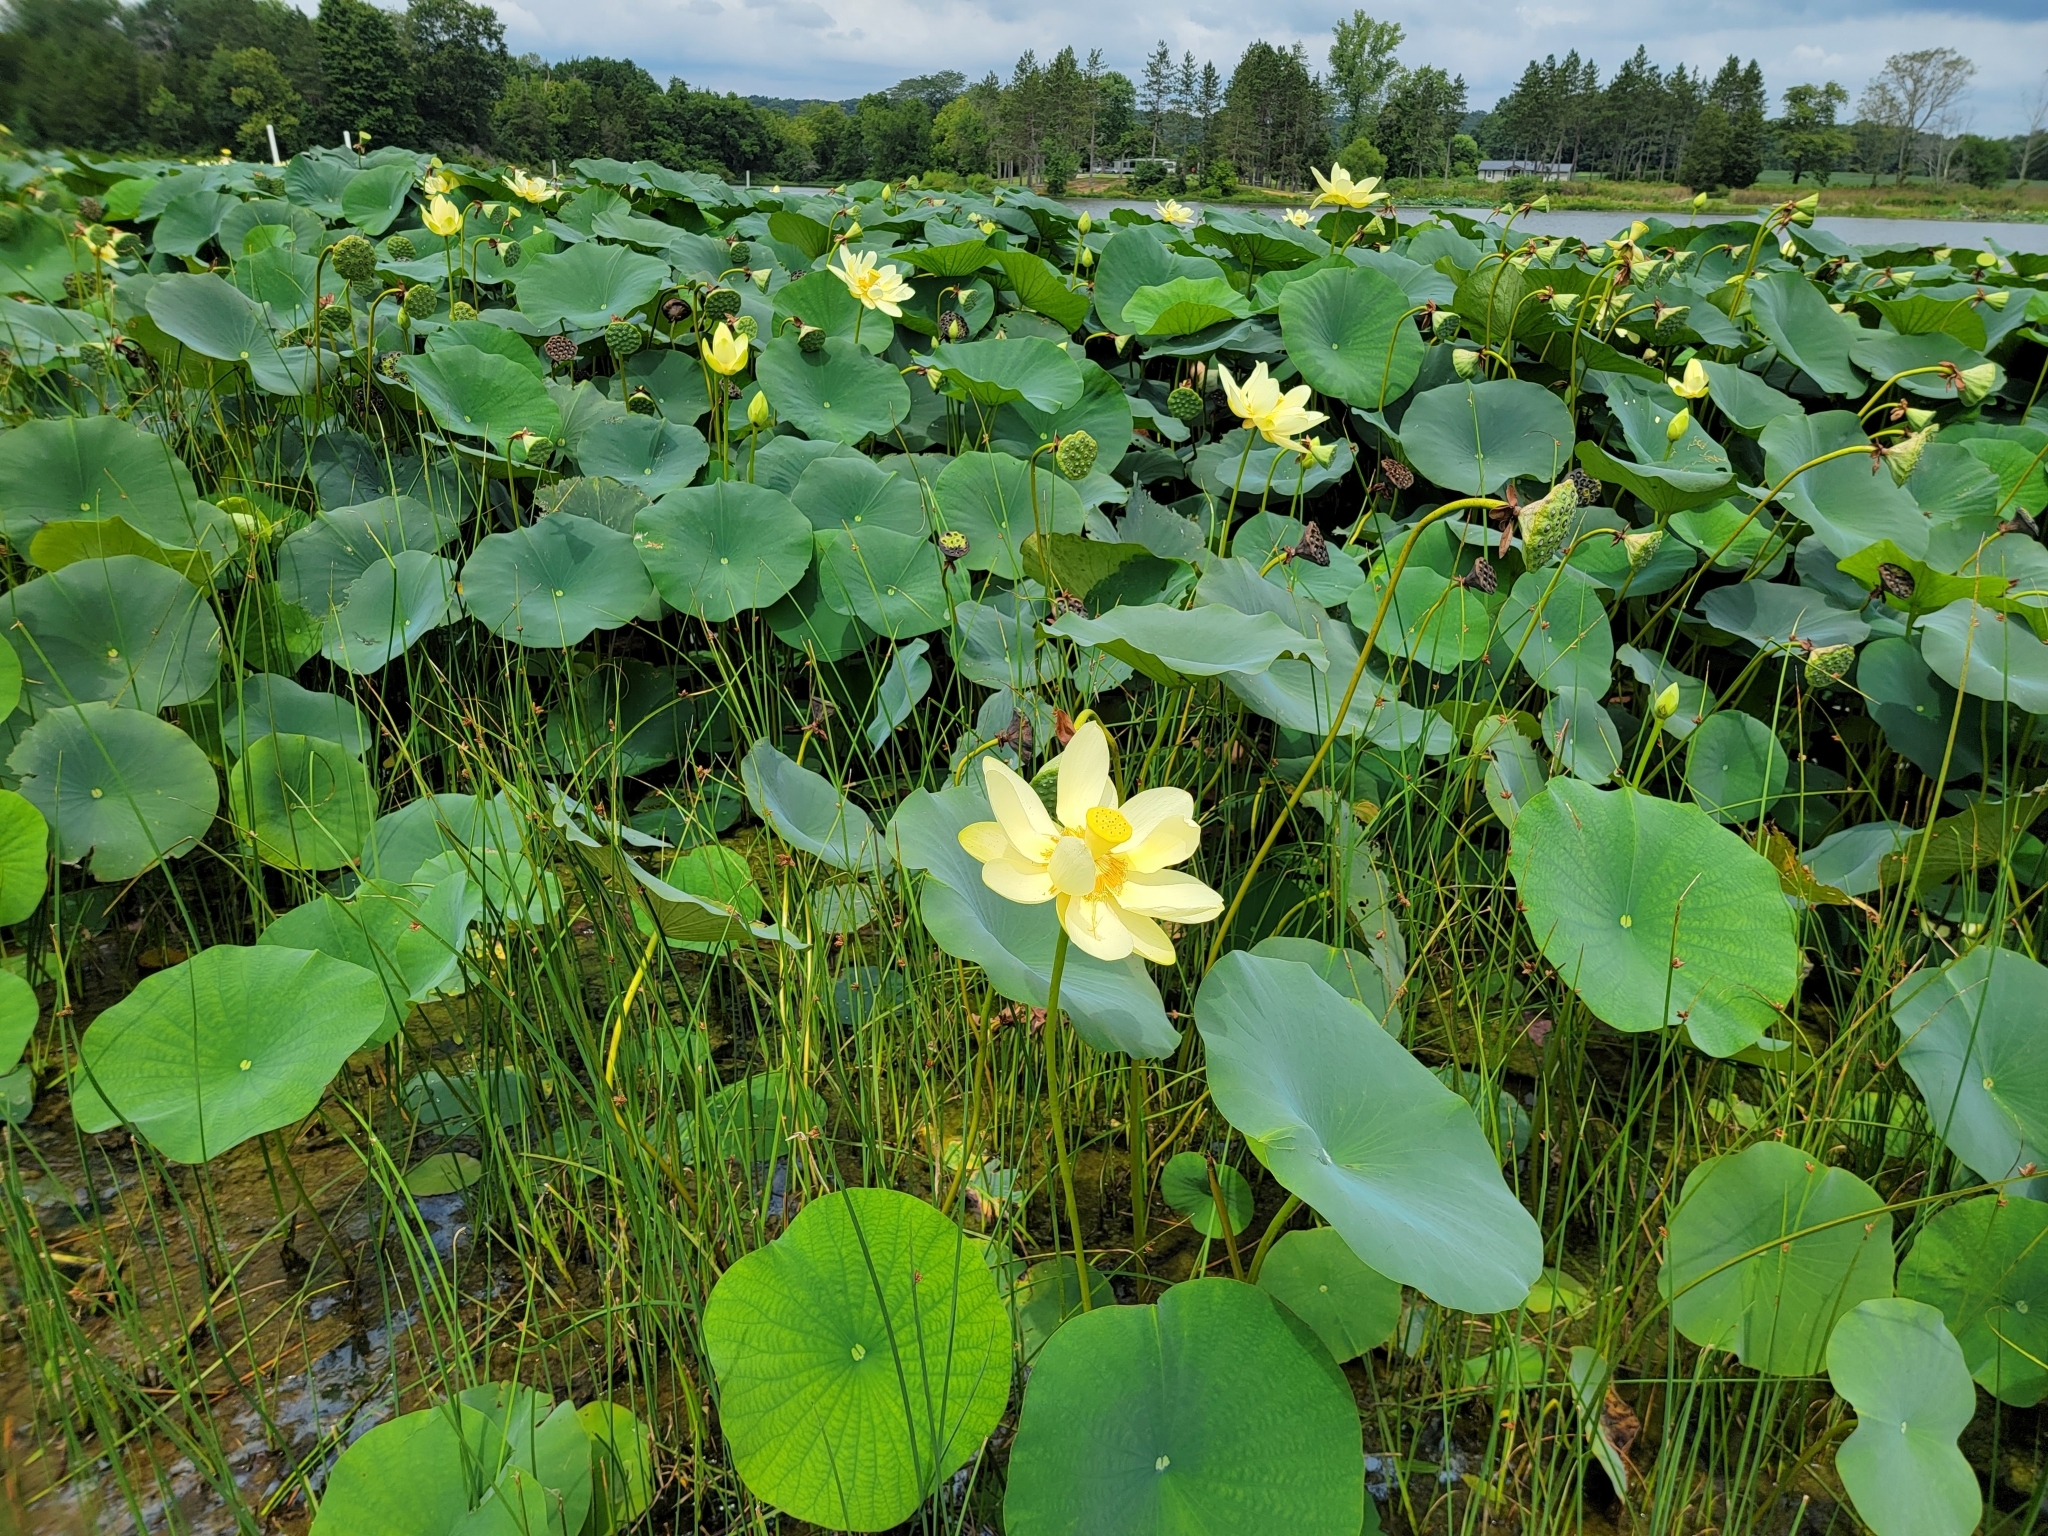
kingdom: Plantae
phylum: Tracheophyta
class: Magnoliopsida
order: Proteales
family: Nelumbonaceae
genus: Nelumbo
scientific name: Nelumbo lutea
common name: American lotus
